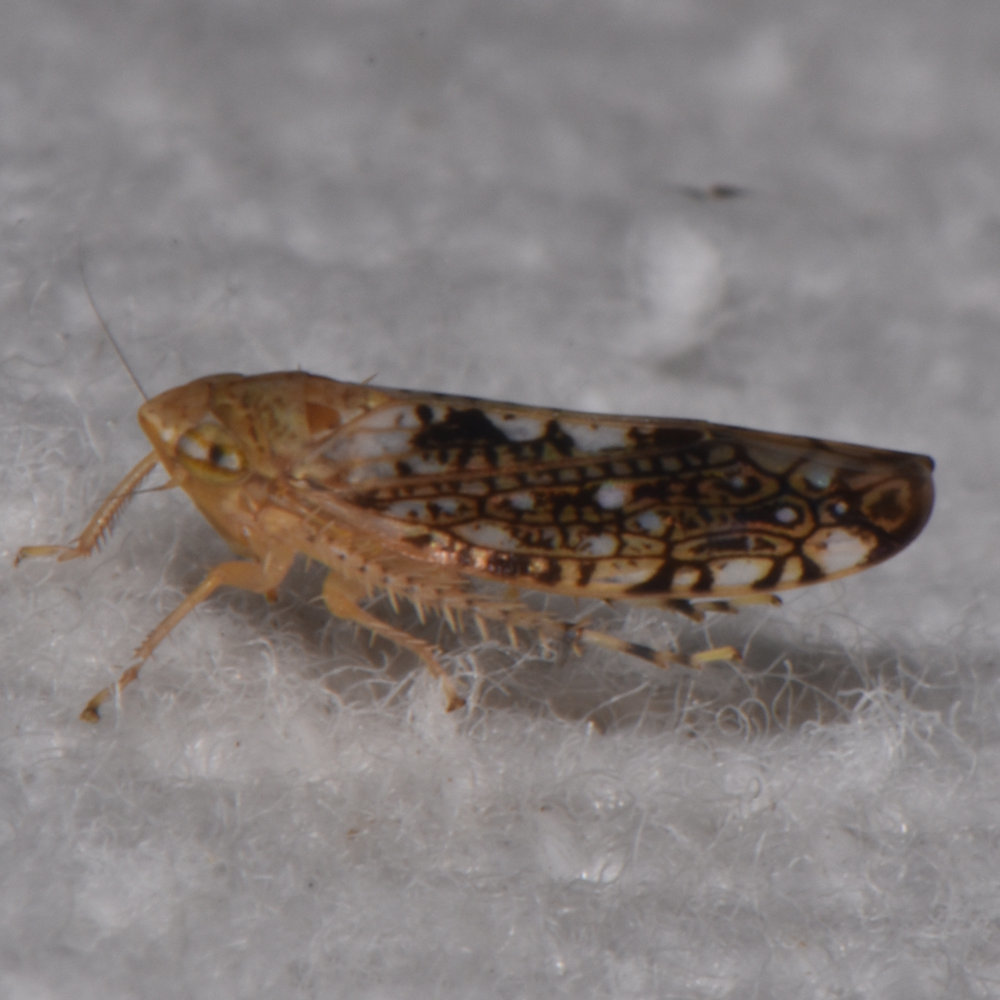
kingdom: Animalia
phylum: Arthropoda
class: Insecta
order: Hemiptera
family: Cicadellidae
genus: Prescottia
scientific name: Prescottia lobata
